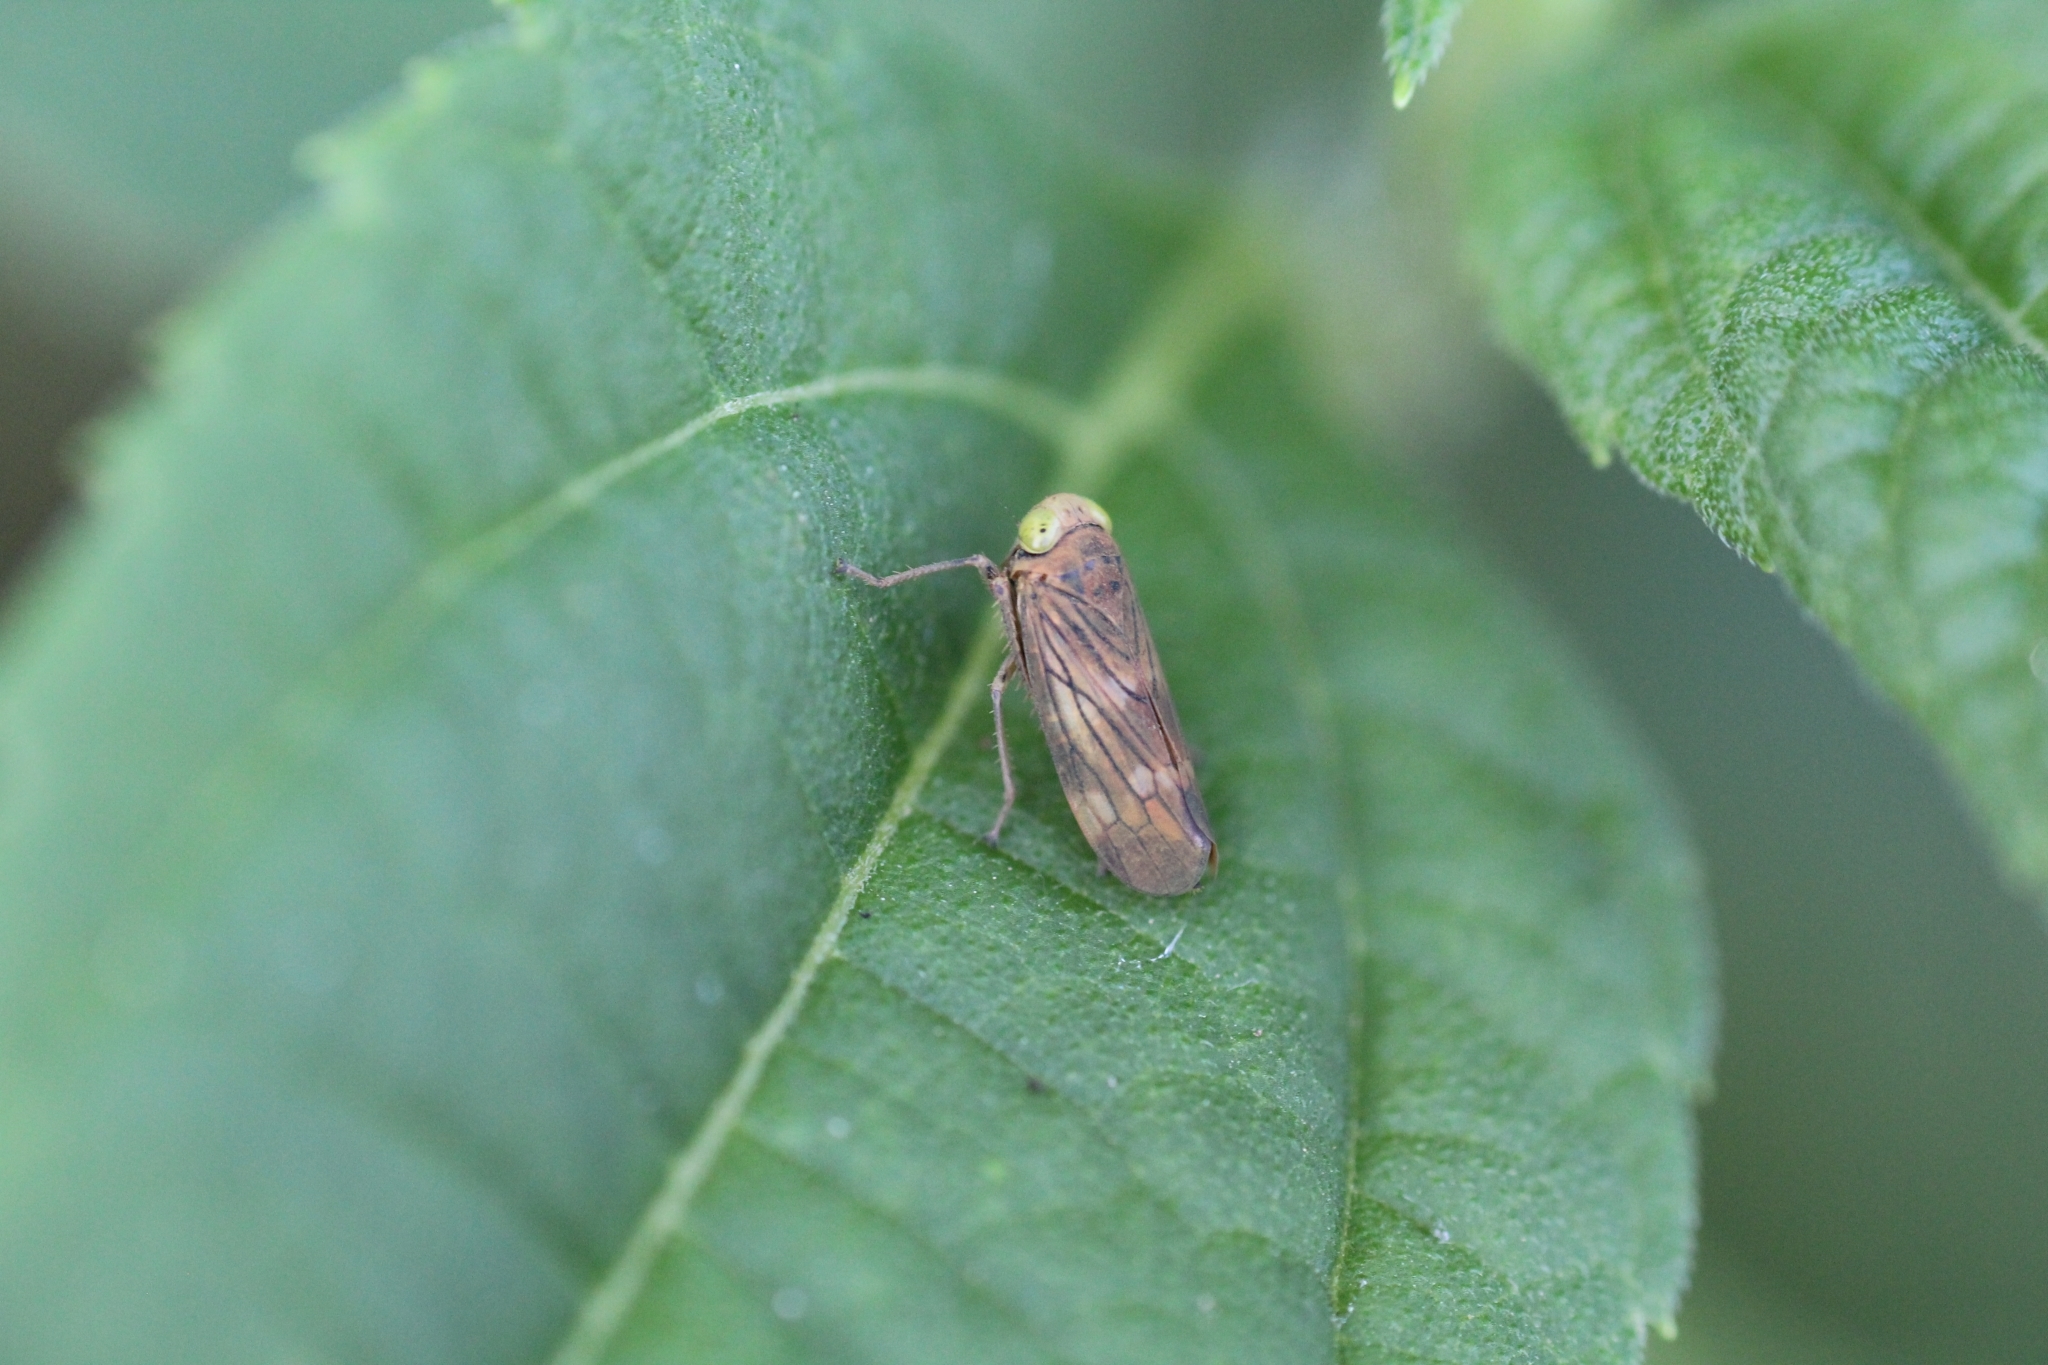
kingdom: Animalia
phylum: Arthropoda
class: Insecta
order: Hemiptera
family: Cicadellidae
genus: Jikradia
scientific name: Jikradia olitoria
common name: Coppery leafhopper
